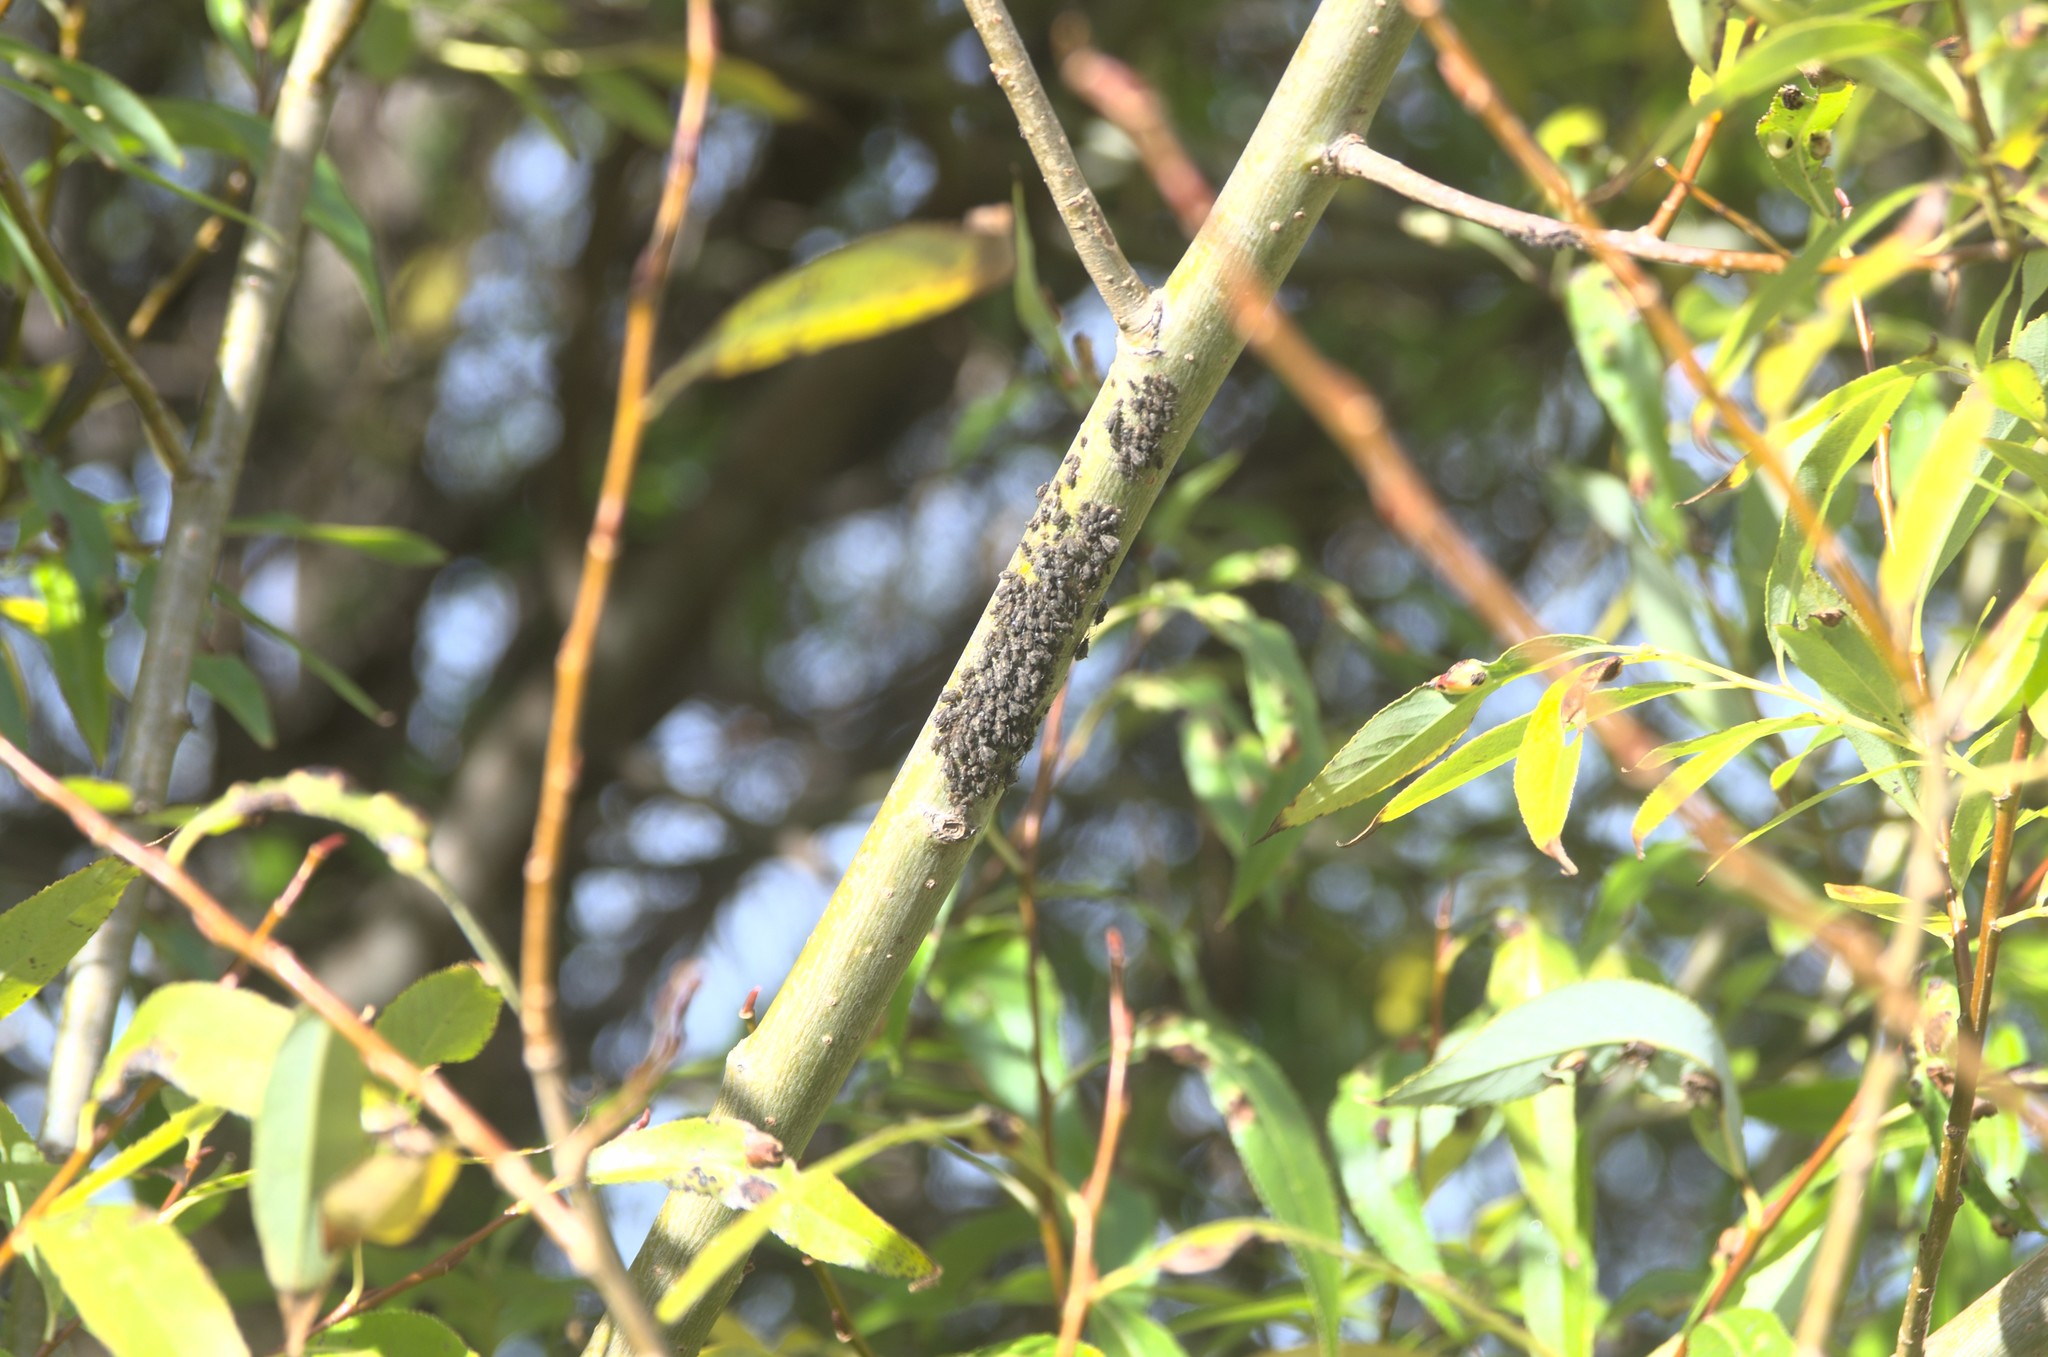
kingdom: Animalia
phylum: Arthropoda
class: Insecta
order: Hemiptera
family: Aphididae
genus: Tuberolachnus
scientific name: Tuberolachnus salignus
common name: Giant willow aphid
